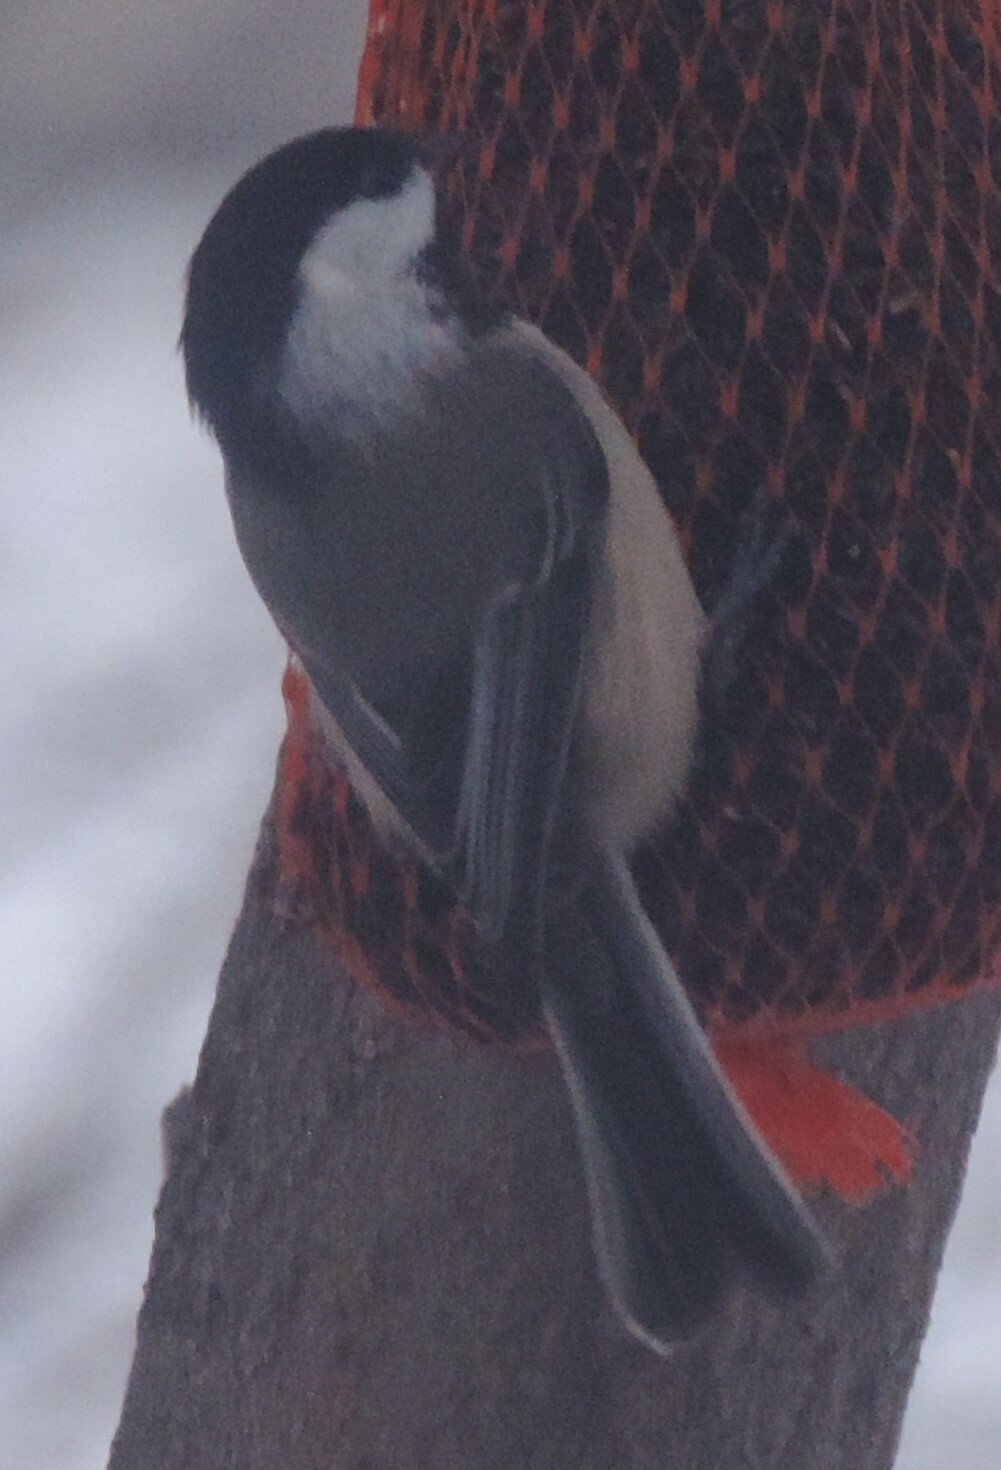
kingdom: Animalia
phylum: Chordata
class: Aves
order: Passeriformes
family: Paridae
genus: Poecile
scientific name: Poecile atricapillus
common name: Black-capped chickadee
